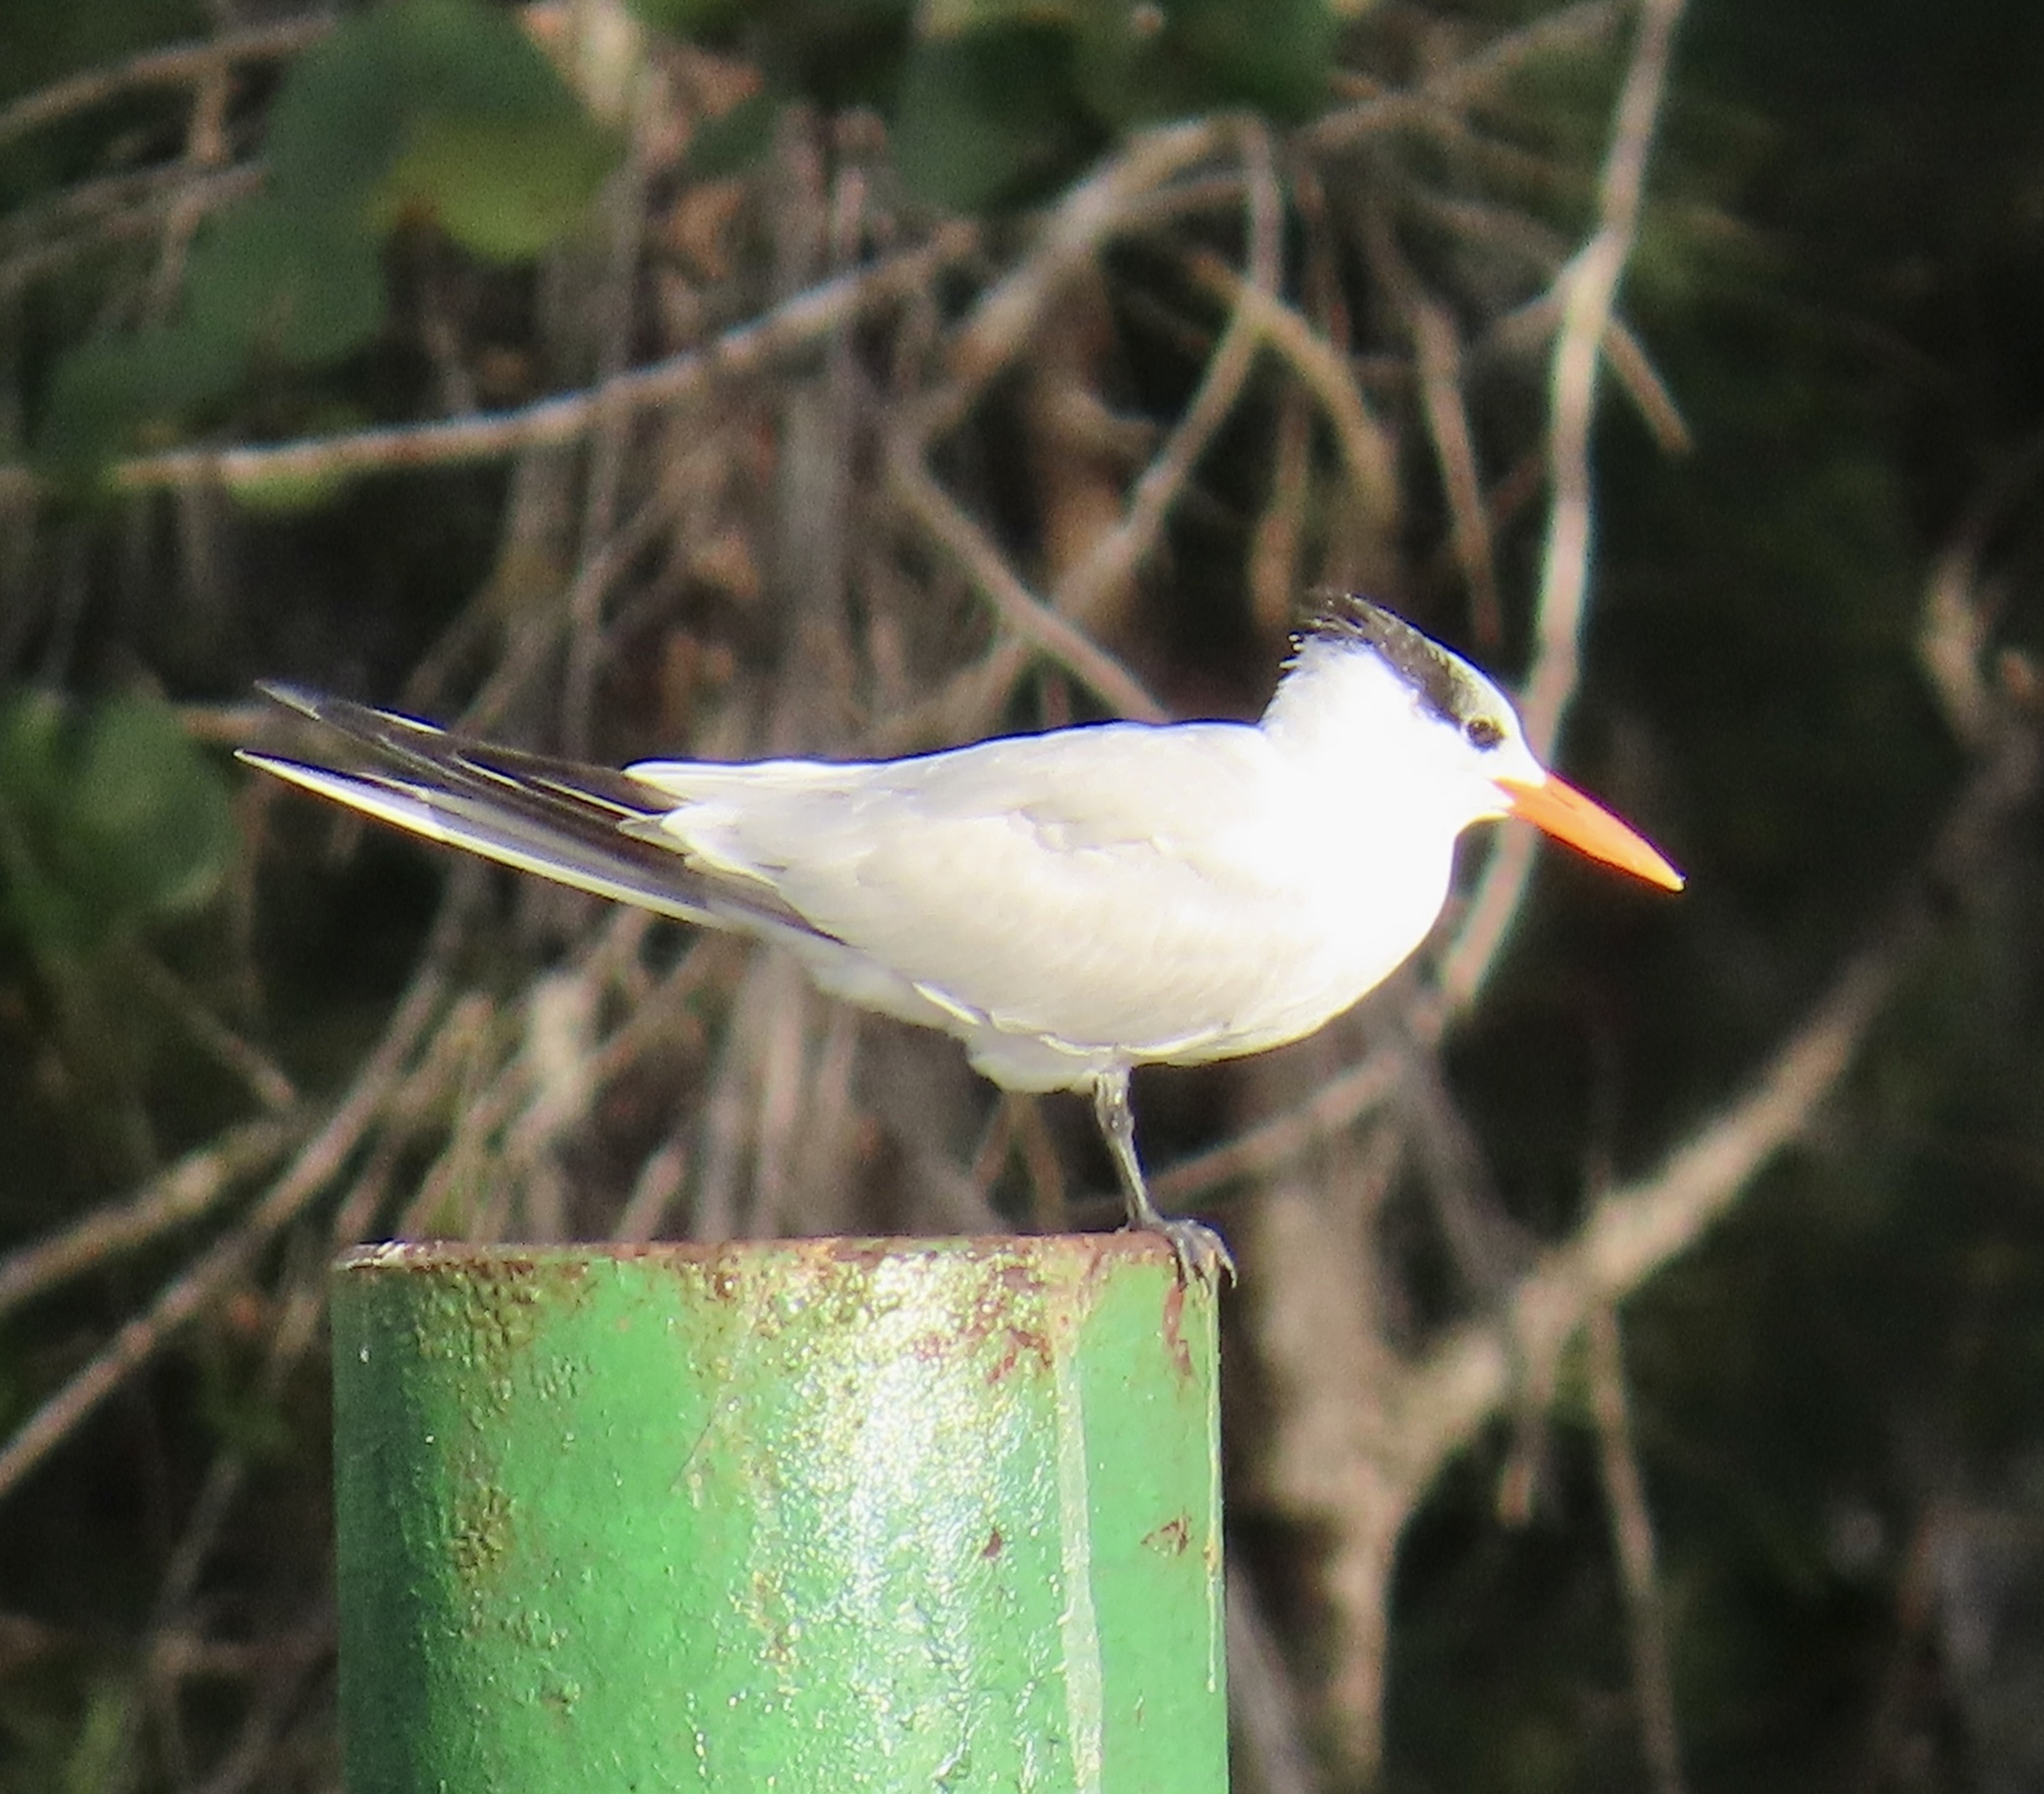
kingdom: Animalia
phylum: Chordata
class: Aves
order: Charadriiformes
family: Laridae
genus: Thalasseus
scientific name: Thalasseus maximus
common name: Royal tern
